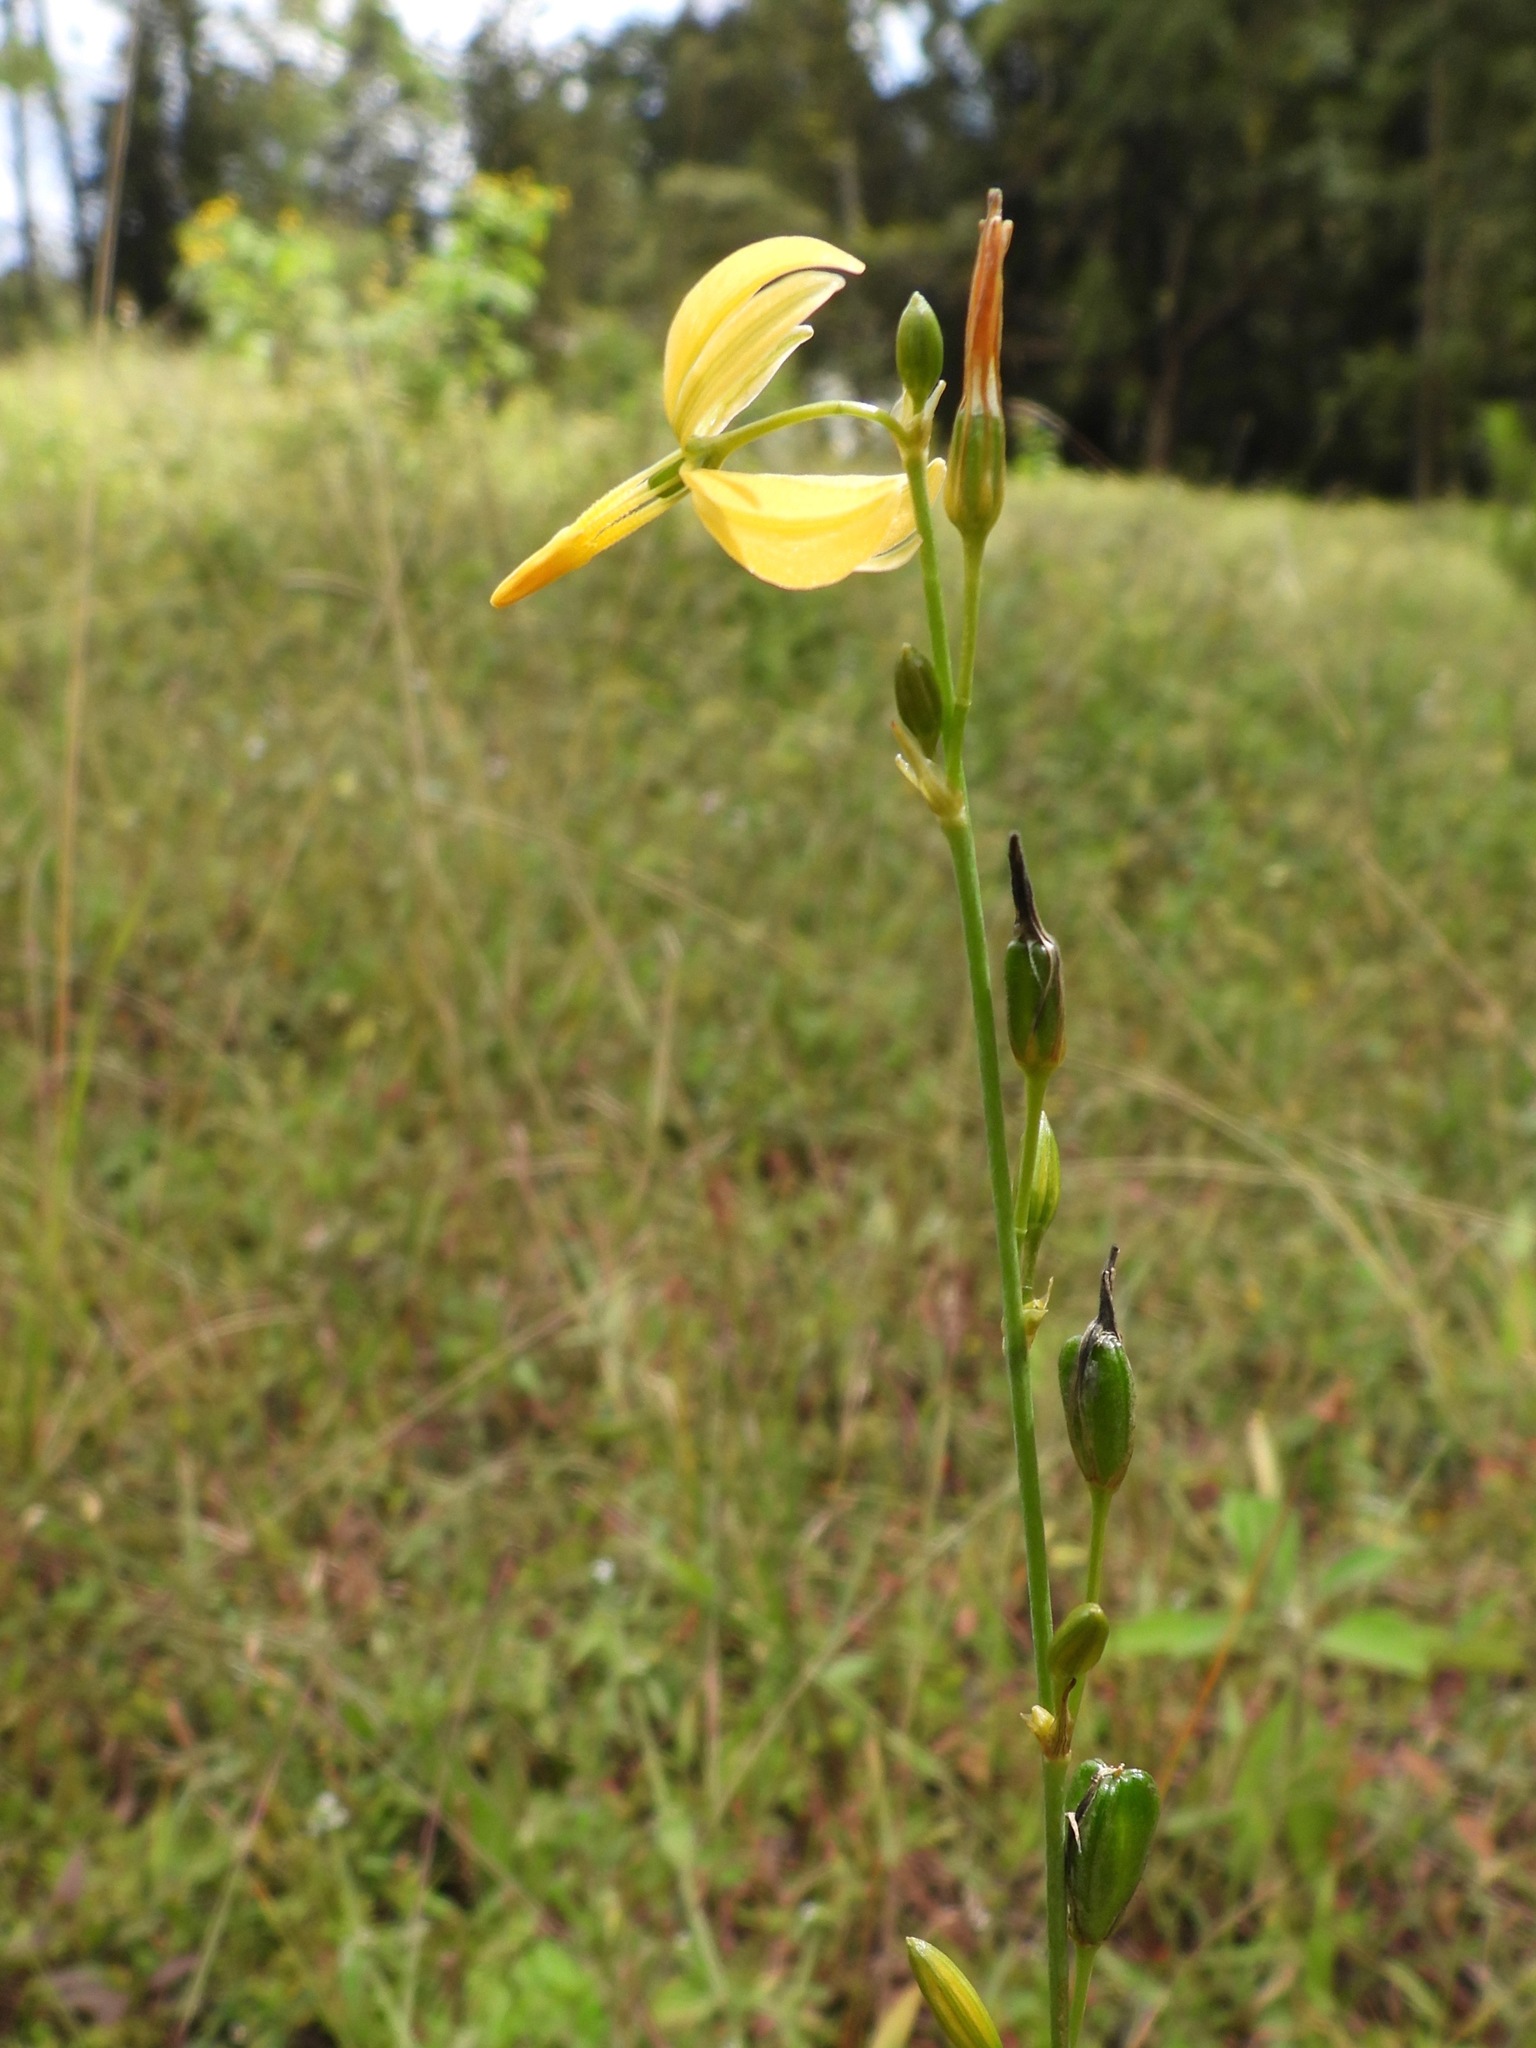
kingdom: Plantae
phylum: Tracheophyta
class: Liliopsida
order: Asparagales
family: Asparagaceae
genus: Echeandia
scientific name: Echeandia formosa
